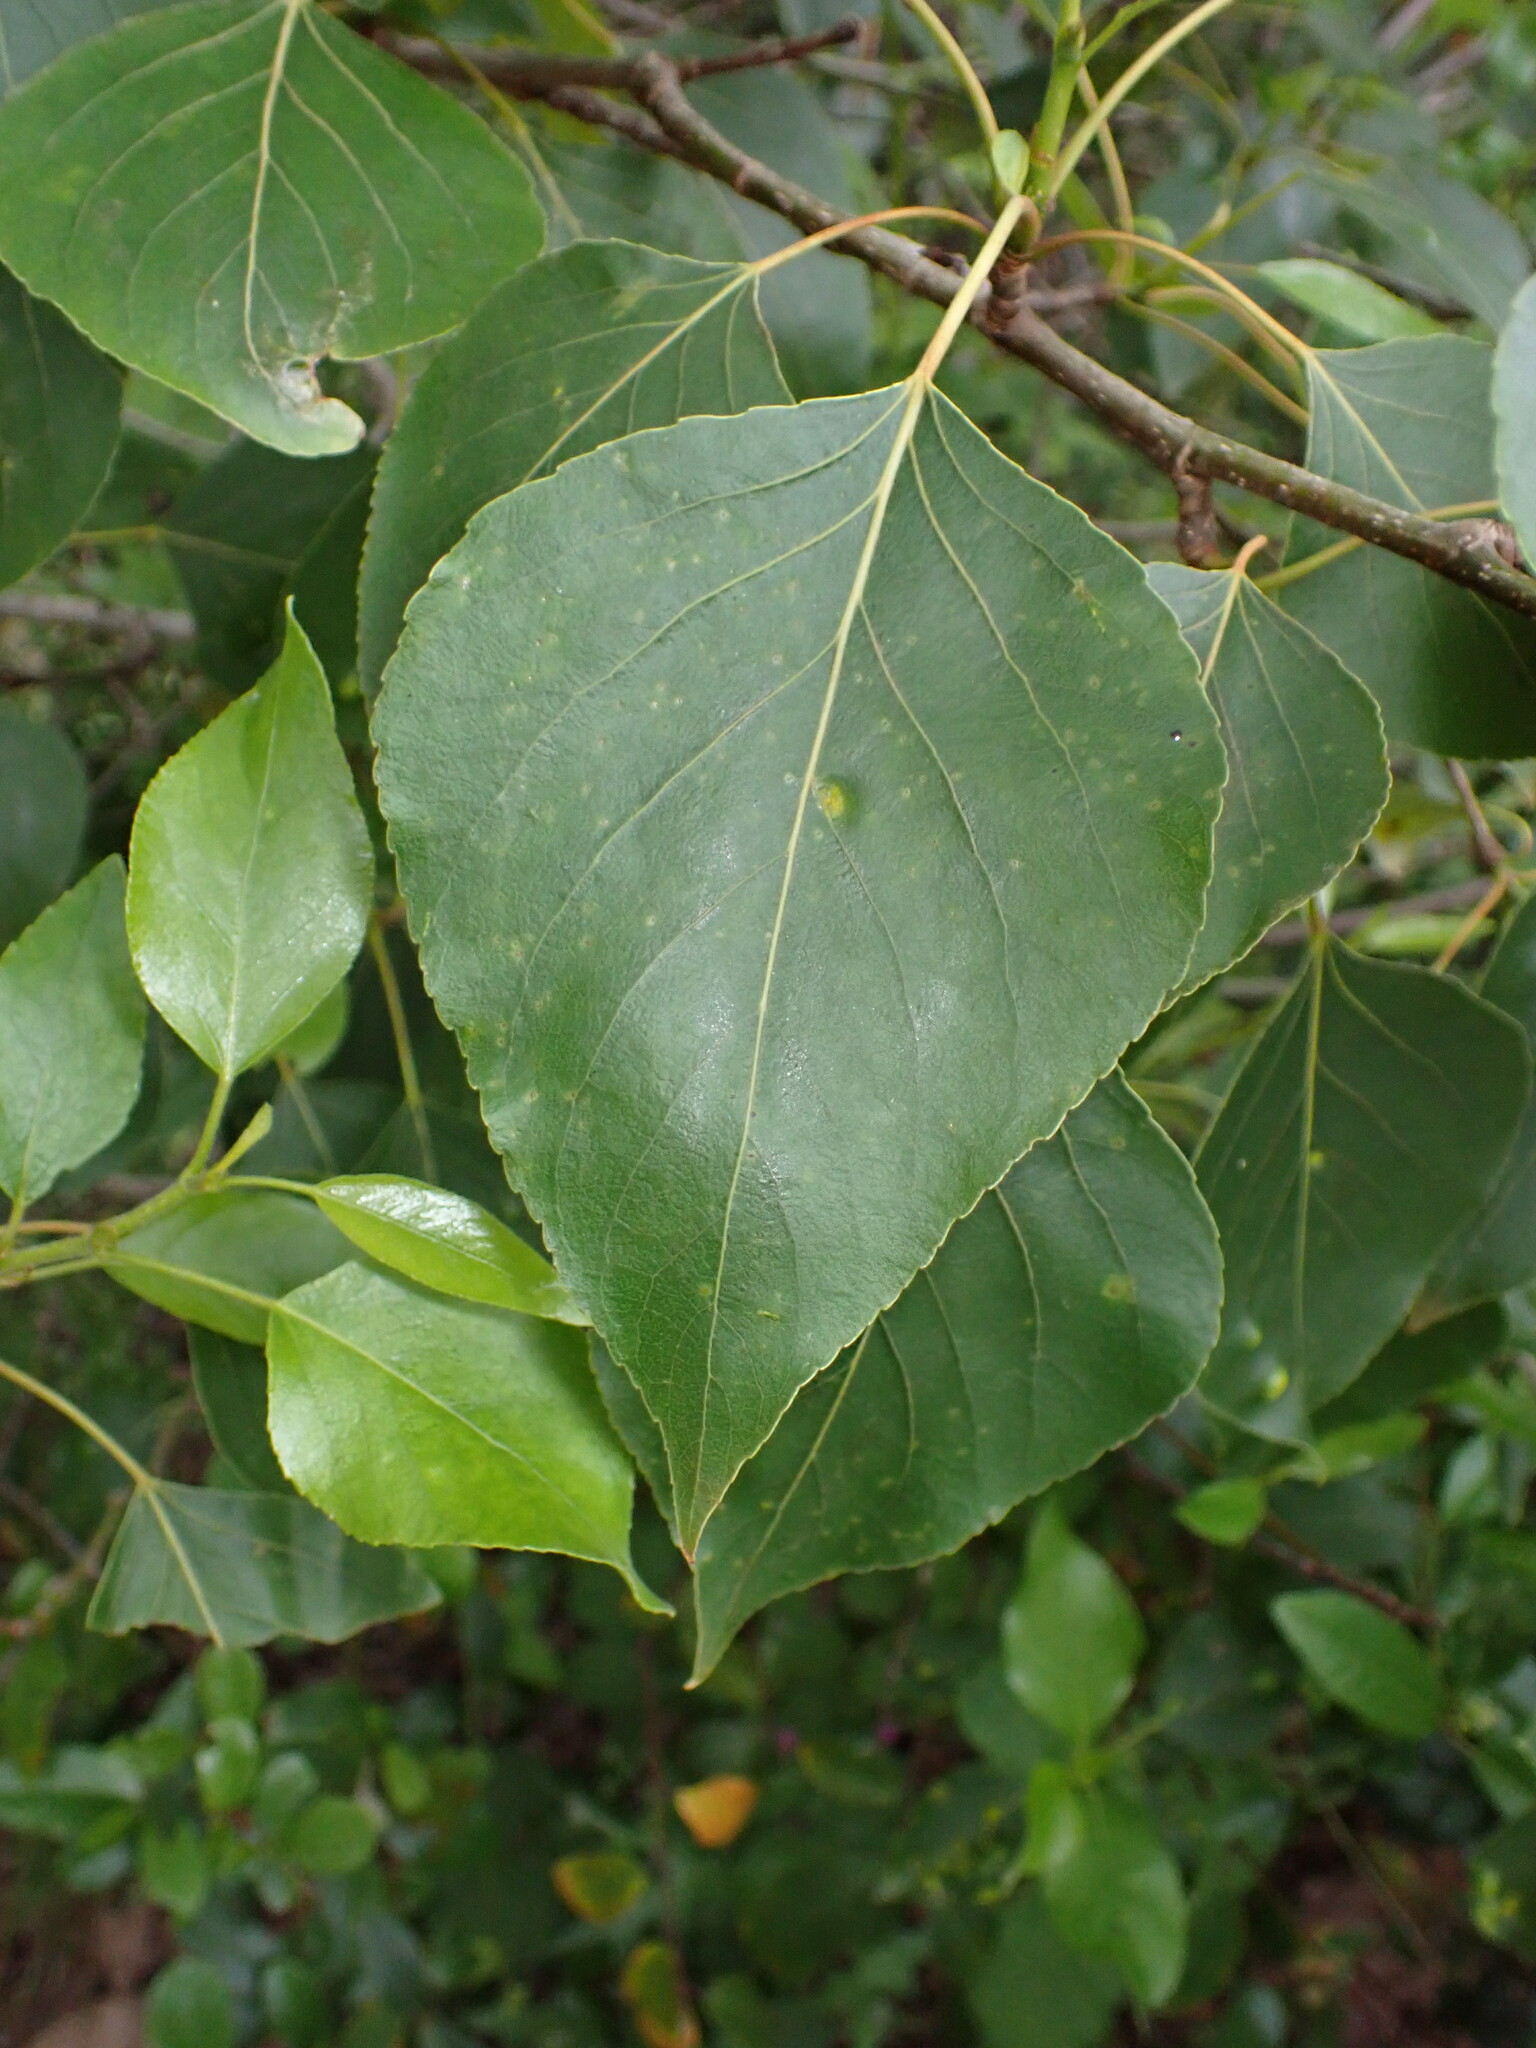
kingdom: Plantae
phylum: Tracheophyta
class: Magnoliopsida
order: Malpighiales
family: Salicaceae
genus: Populus
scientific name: Populus trichocarpa
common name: Black cottonwood
